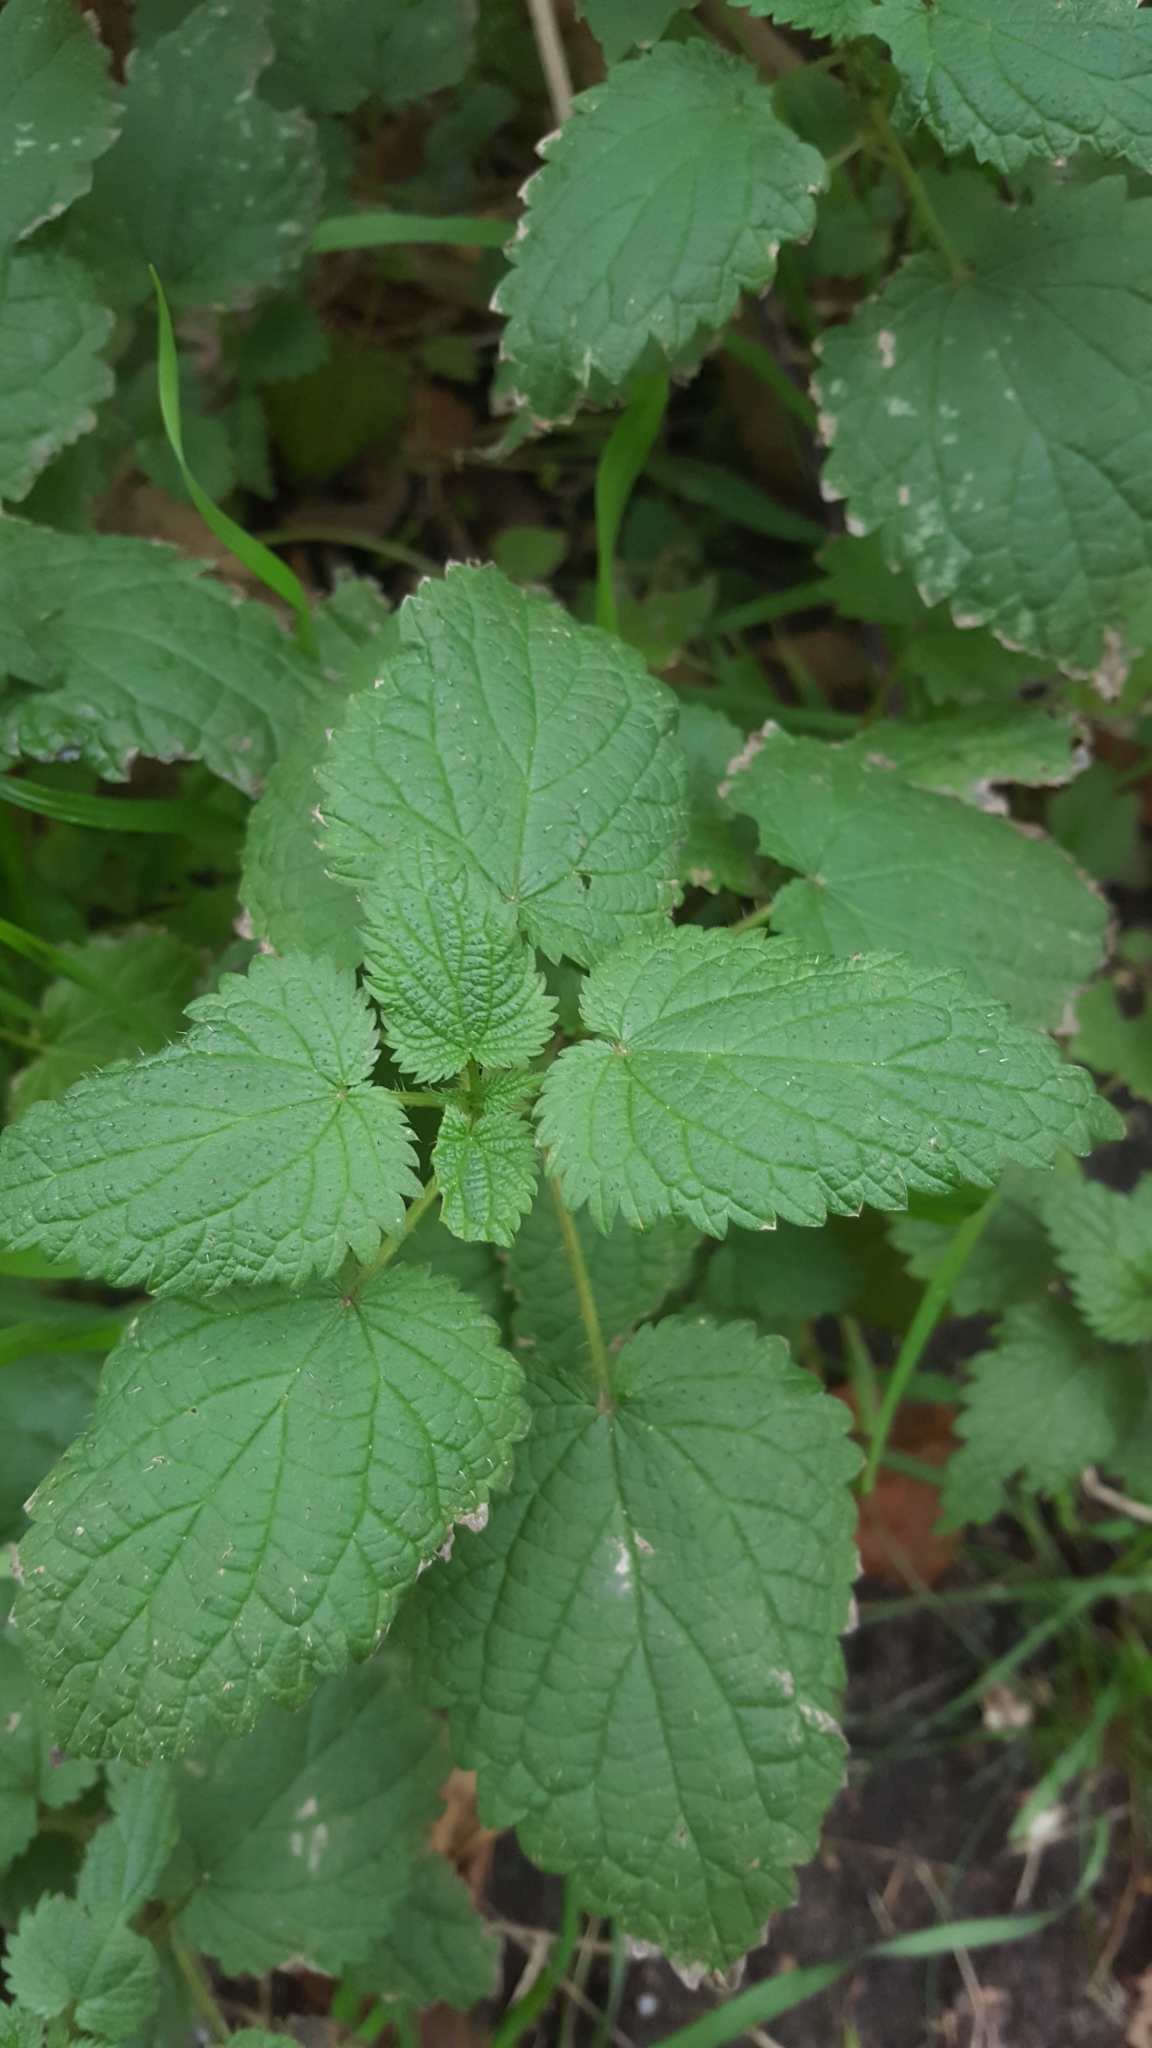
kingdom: Plantae
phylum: Tracheophyta
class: Magnoliopsida
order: Rosales
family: Urticaceae
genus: Urtica
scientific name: Urtica dioica
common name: Common nettle
